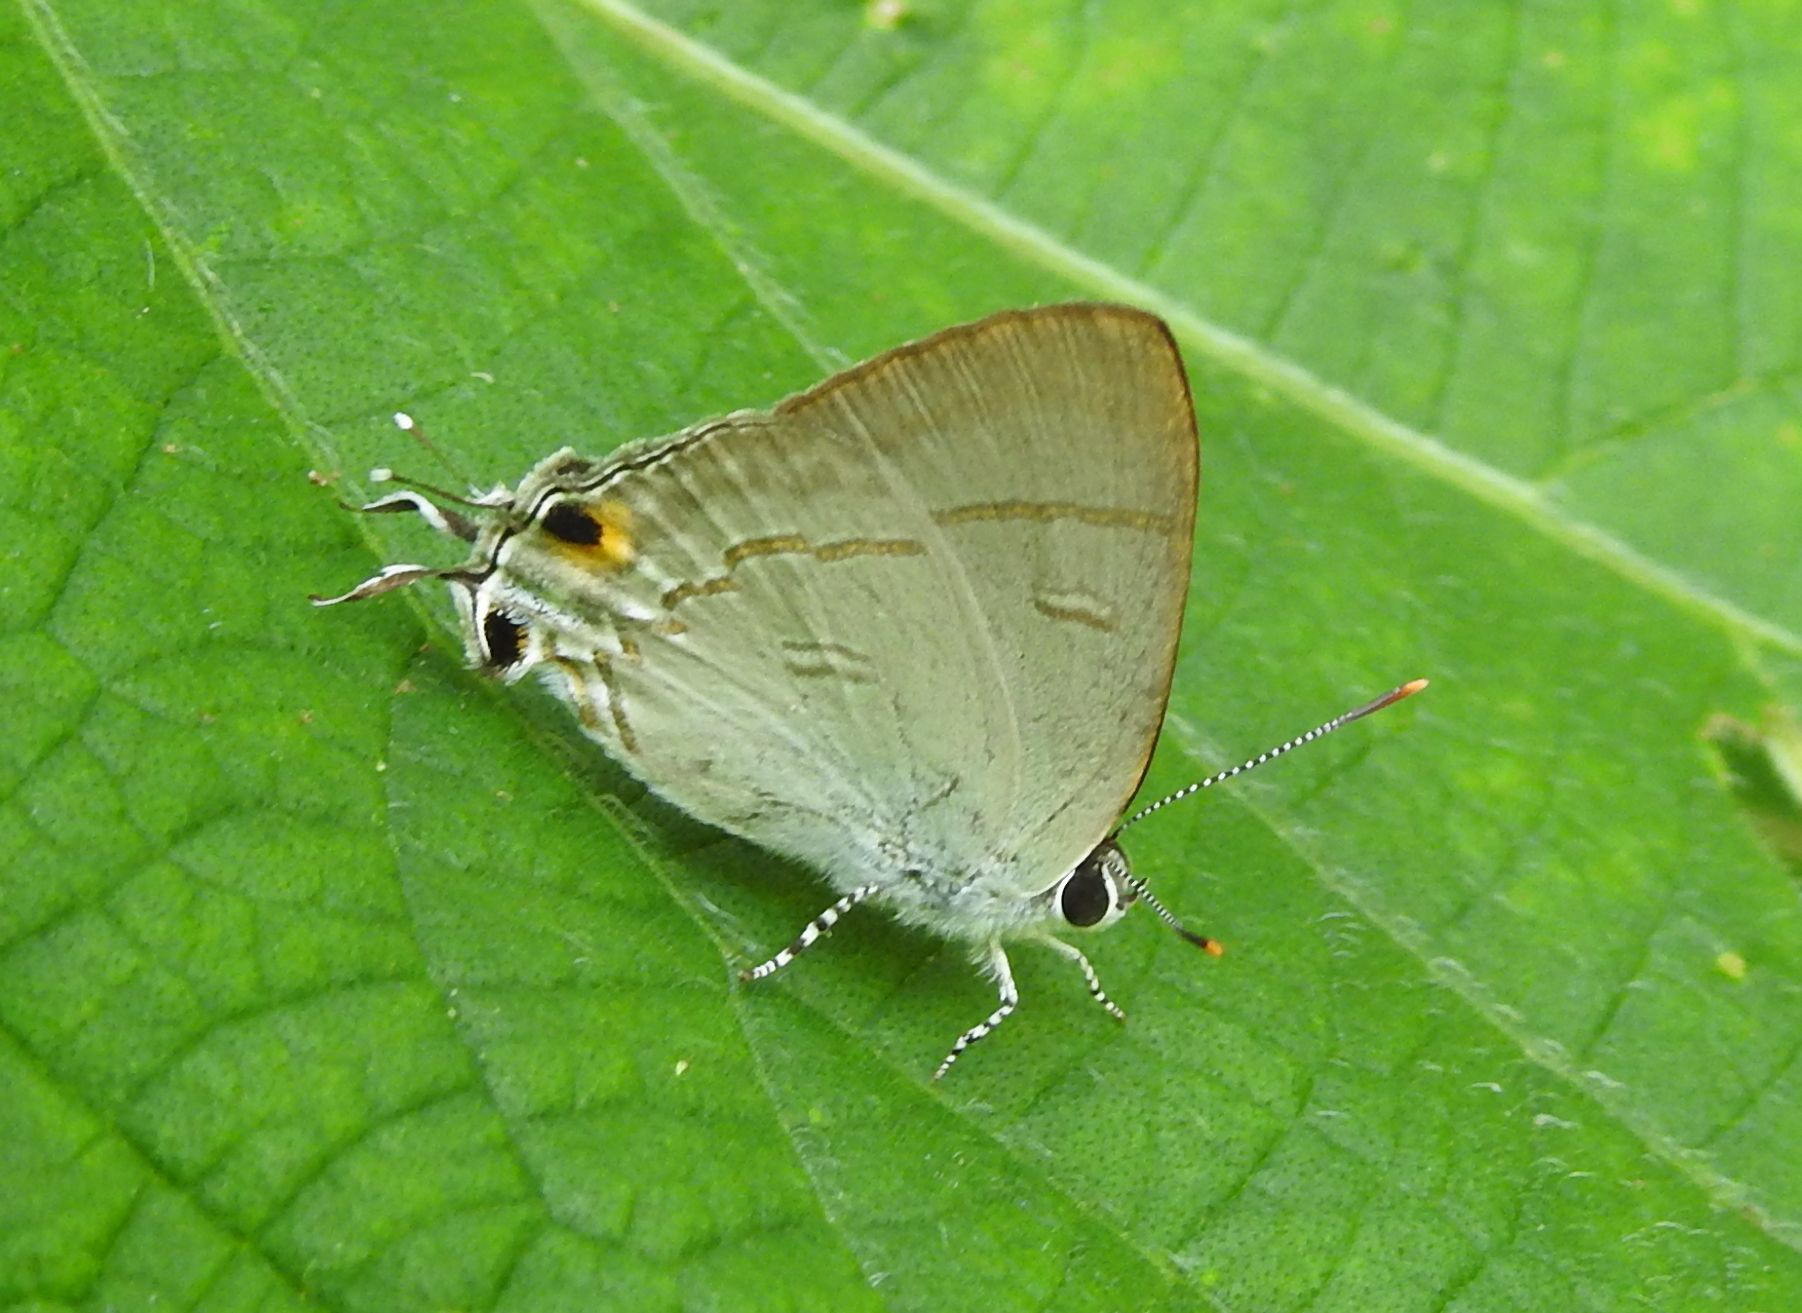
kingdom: Animalia
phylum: Arthropoda
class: Insecta
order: Lepidoptera
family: Lycaenidae
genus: Hypolycaena
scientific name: Hypolycaena erylus
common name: Common tit
